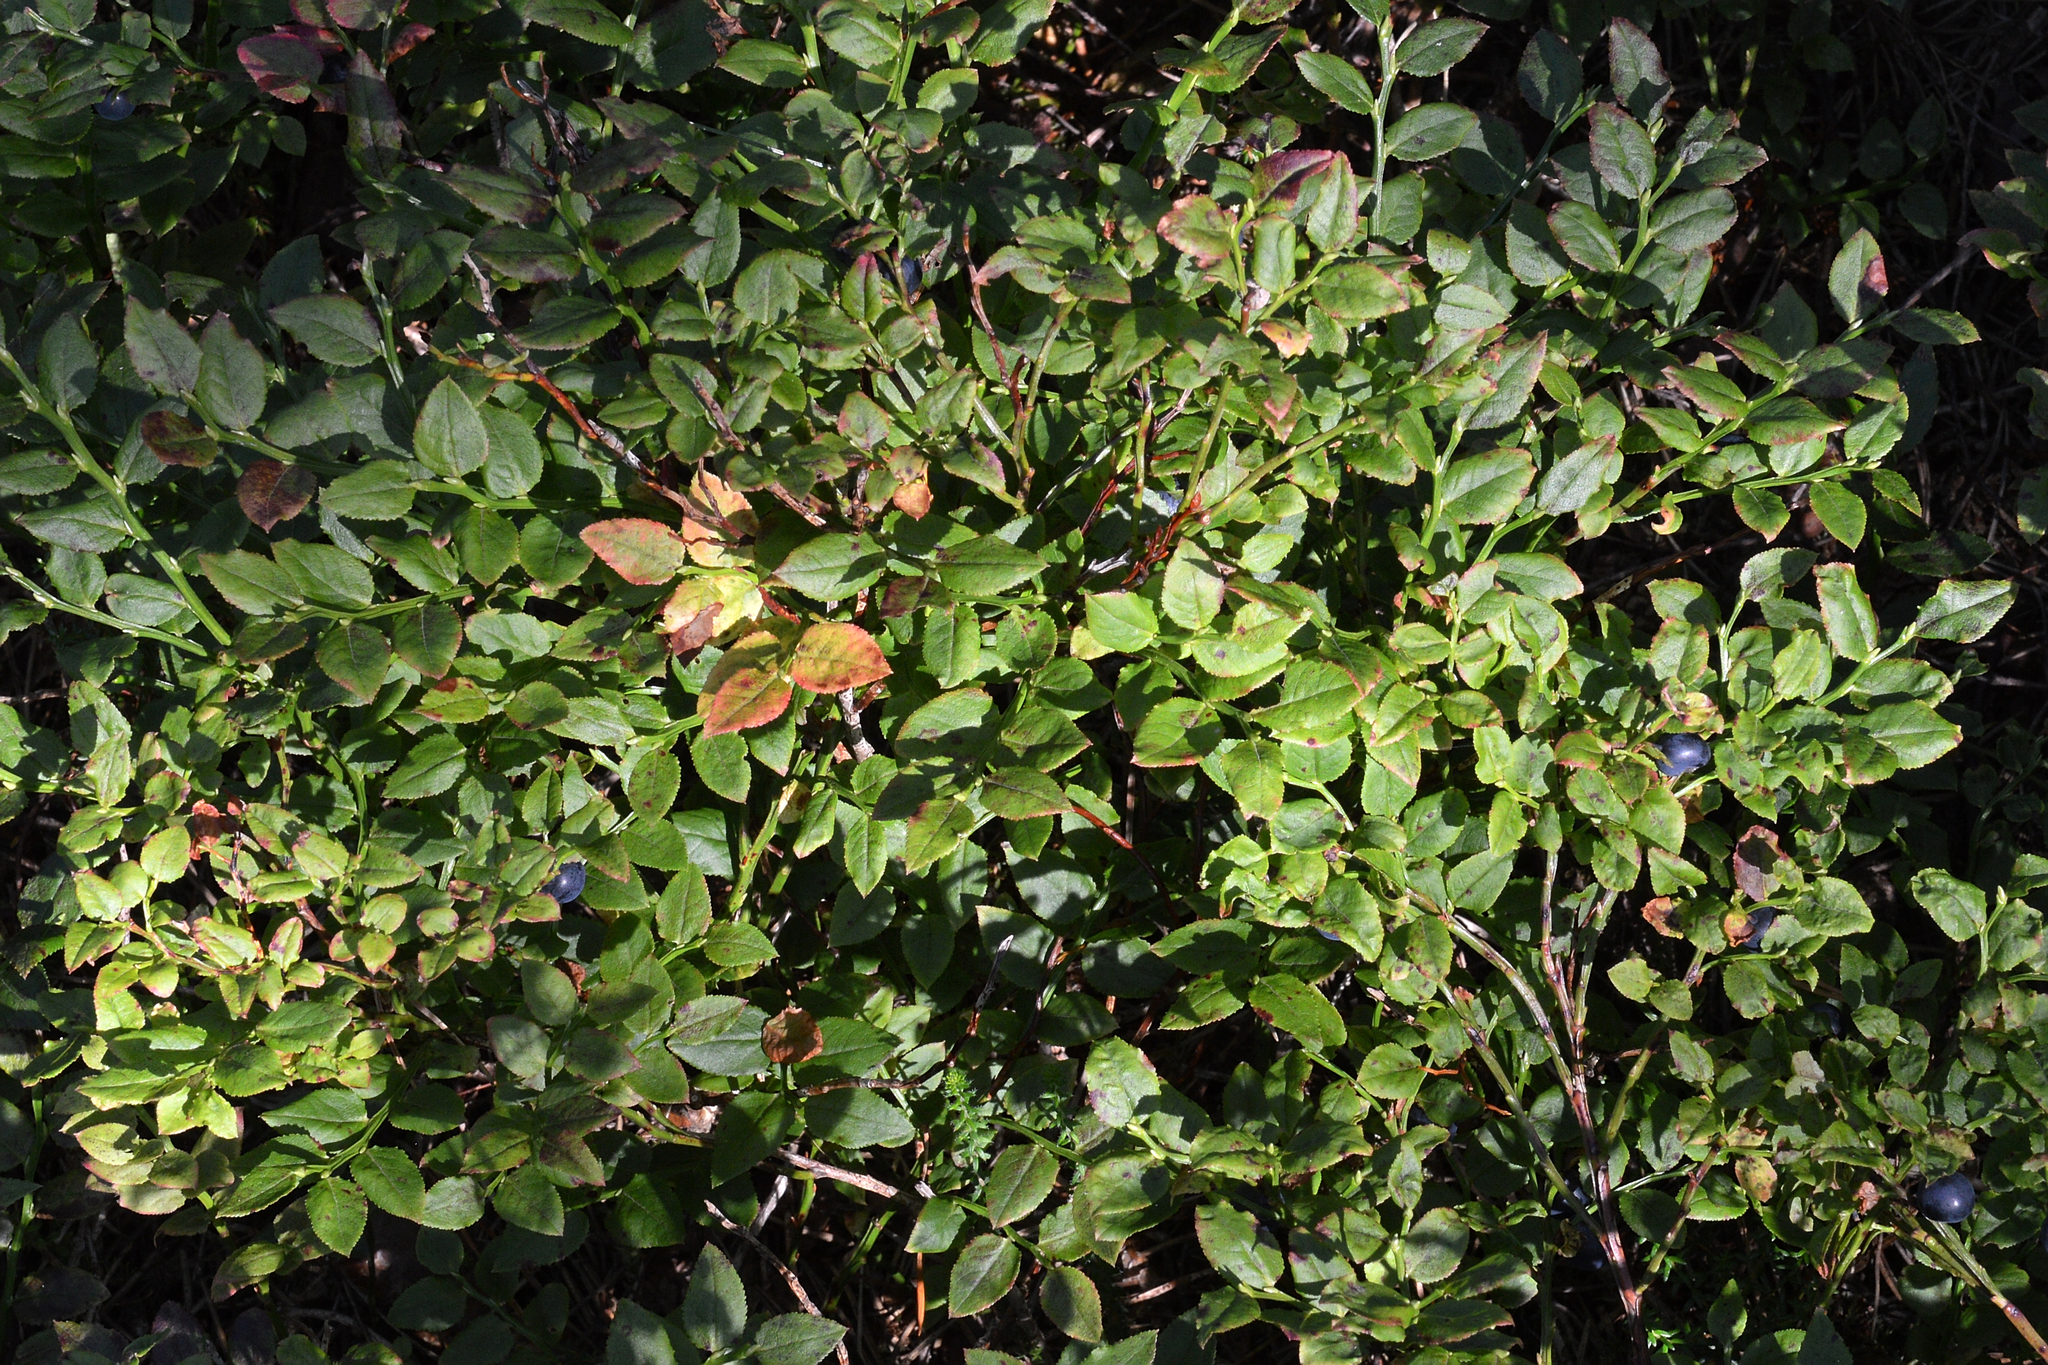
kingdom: Plantae
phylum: Tracheophyta
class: Magnoliopsida
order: Ericales
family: Ericaceae
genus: Vaccinium
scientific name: Vaccinium myrtillus
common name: Bilberry
